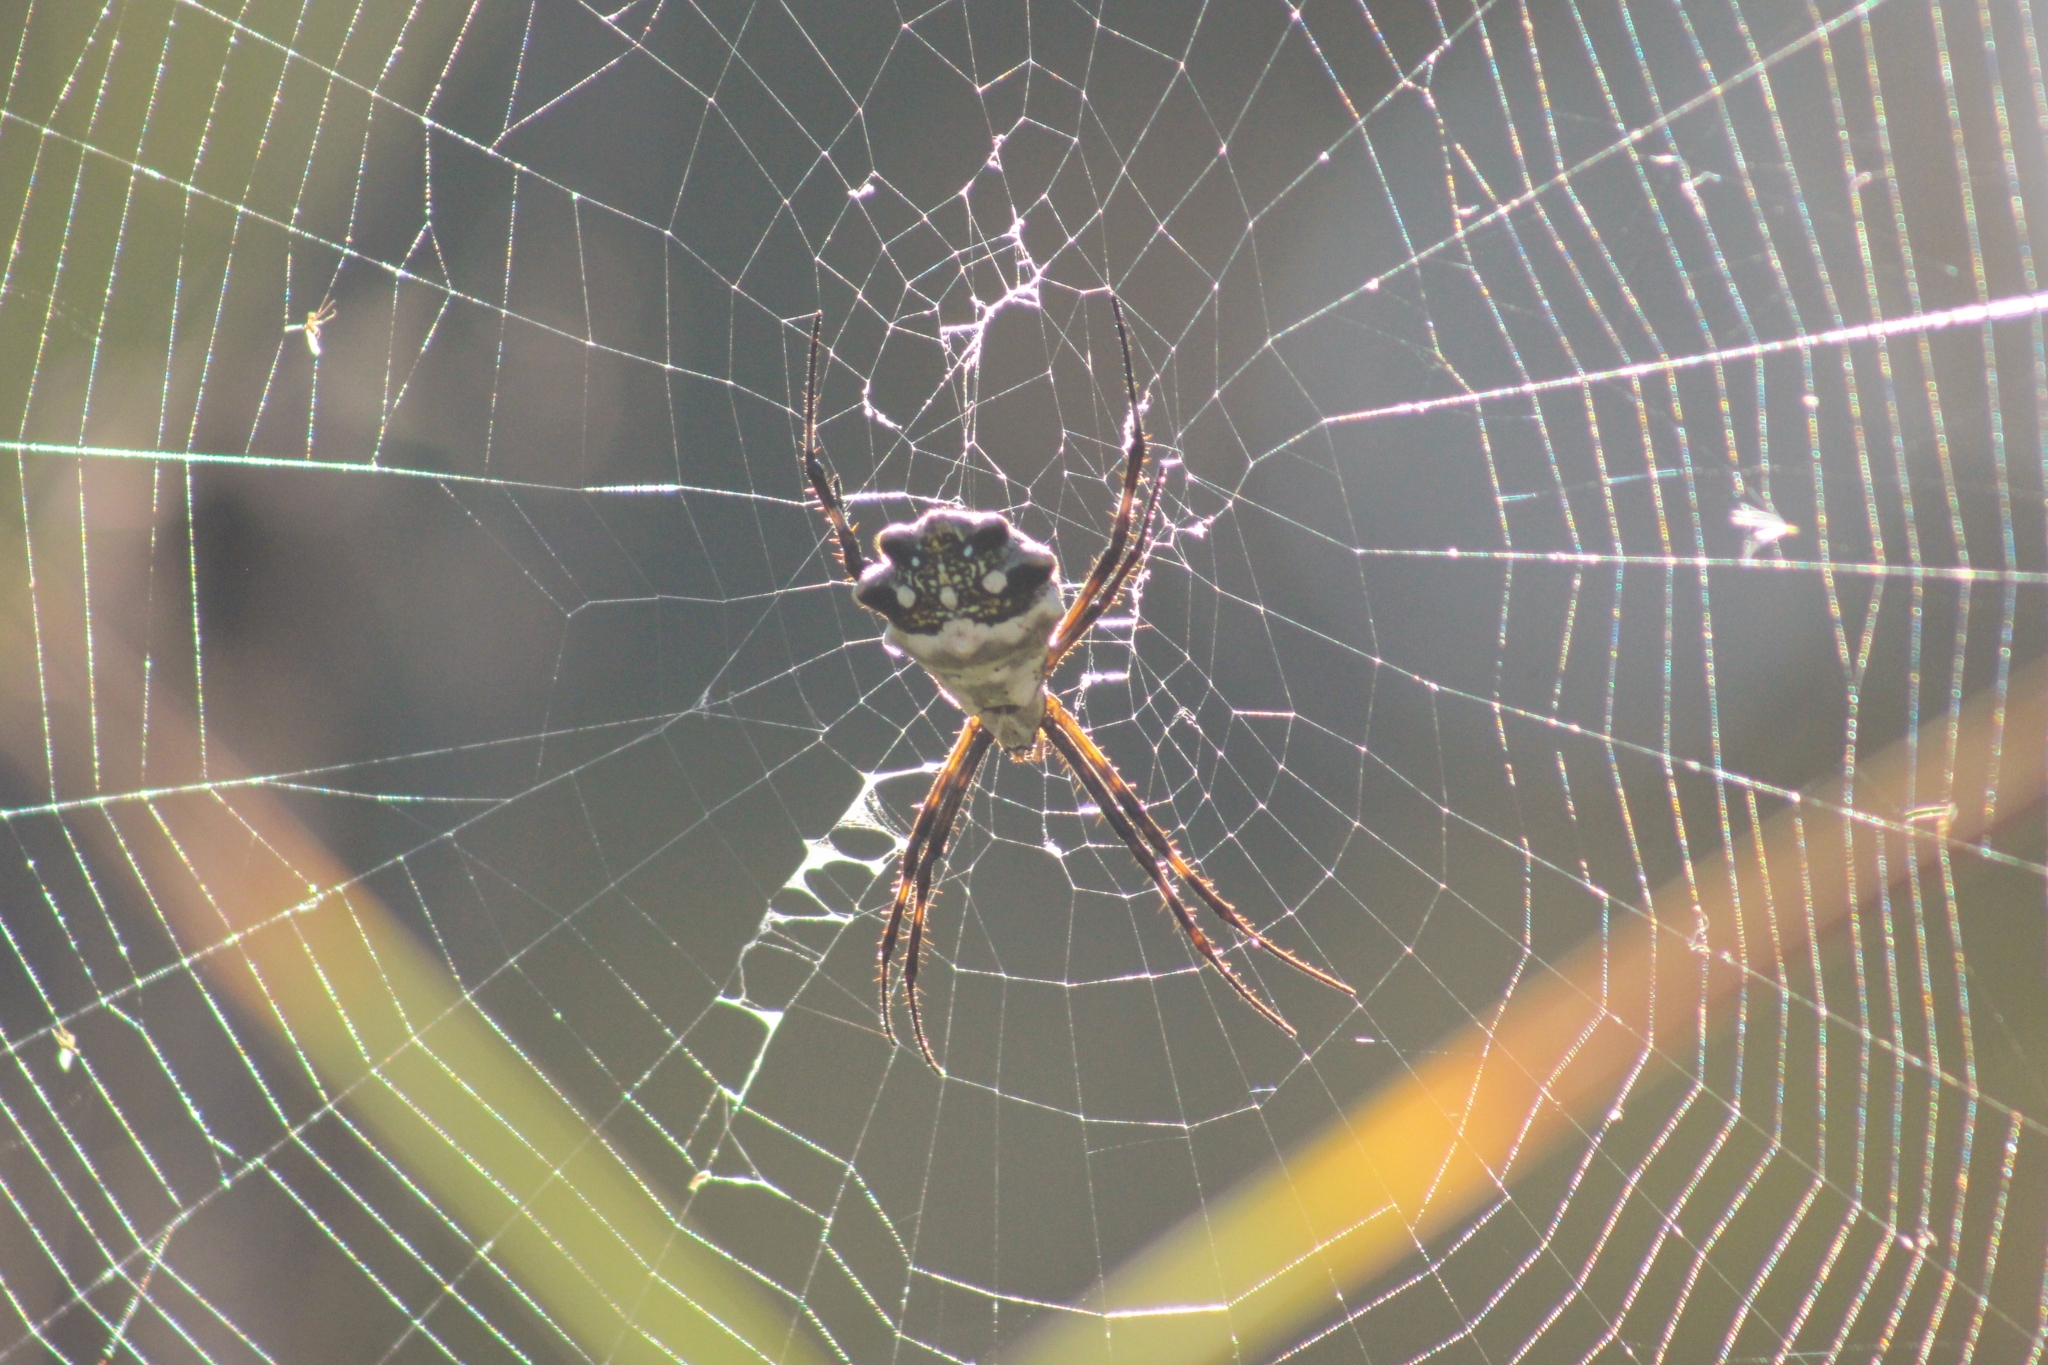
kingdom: Animalia
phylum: Arthropoda
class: Arachnida
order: Araneae
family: Araneidae
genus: Argiope
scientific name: Argiope argentata
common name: Orb weavers
